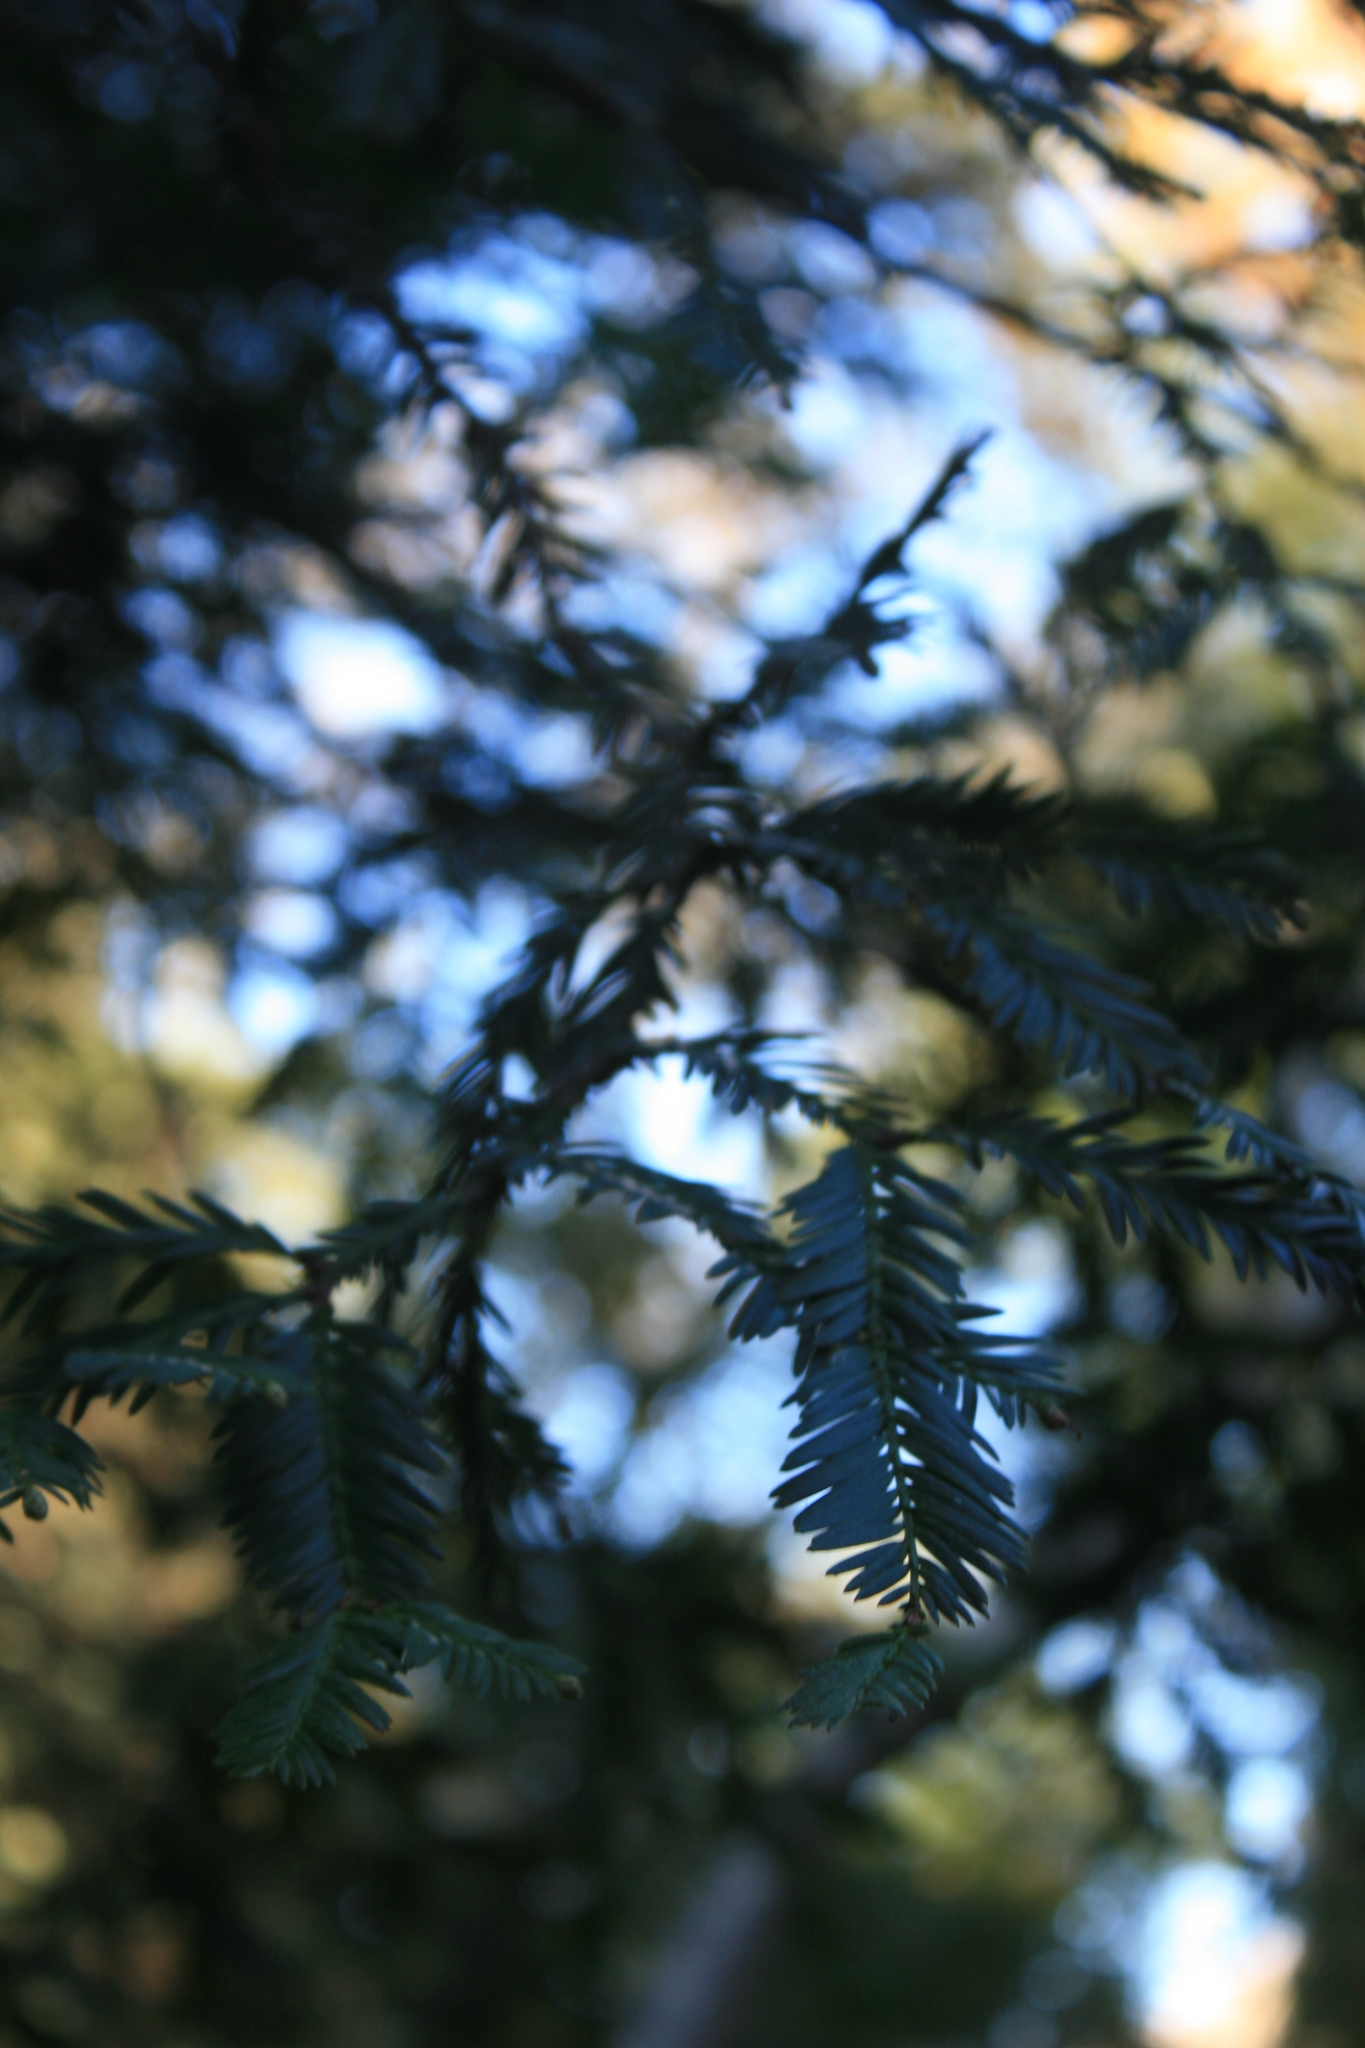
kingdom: Plantae
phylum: Tracheophyta
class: Pinopsida
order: Pinales
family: Cupressaceae
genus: Sequoia
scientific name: Sequoia sempervirens
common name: Coast redwood
